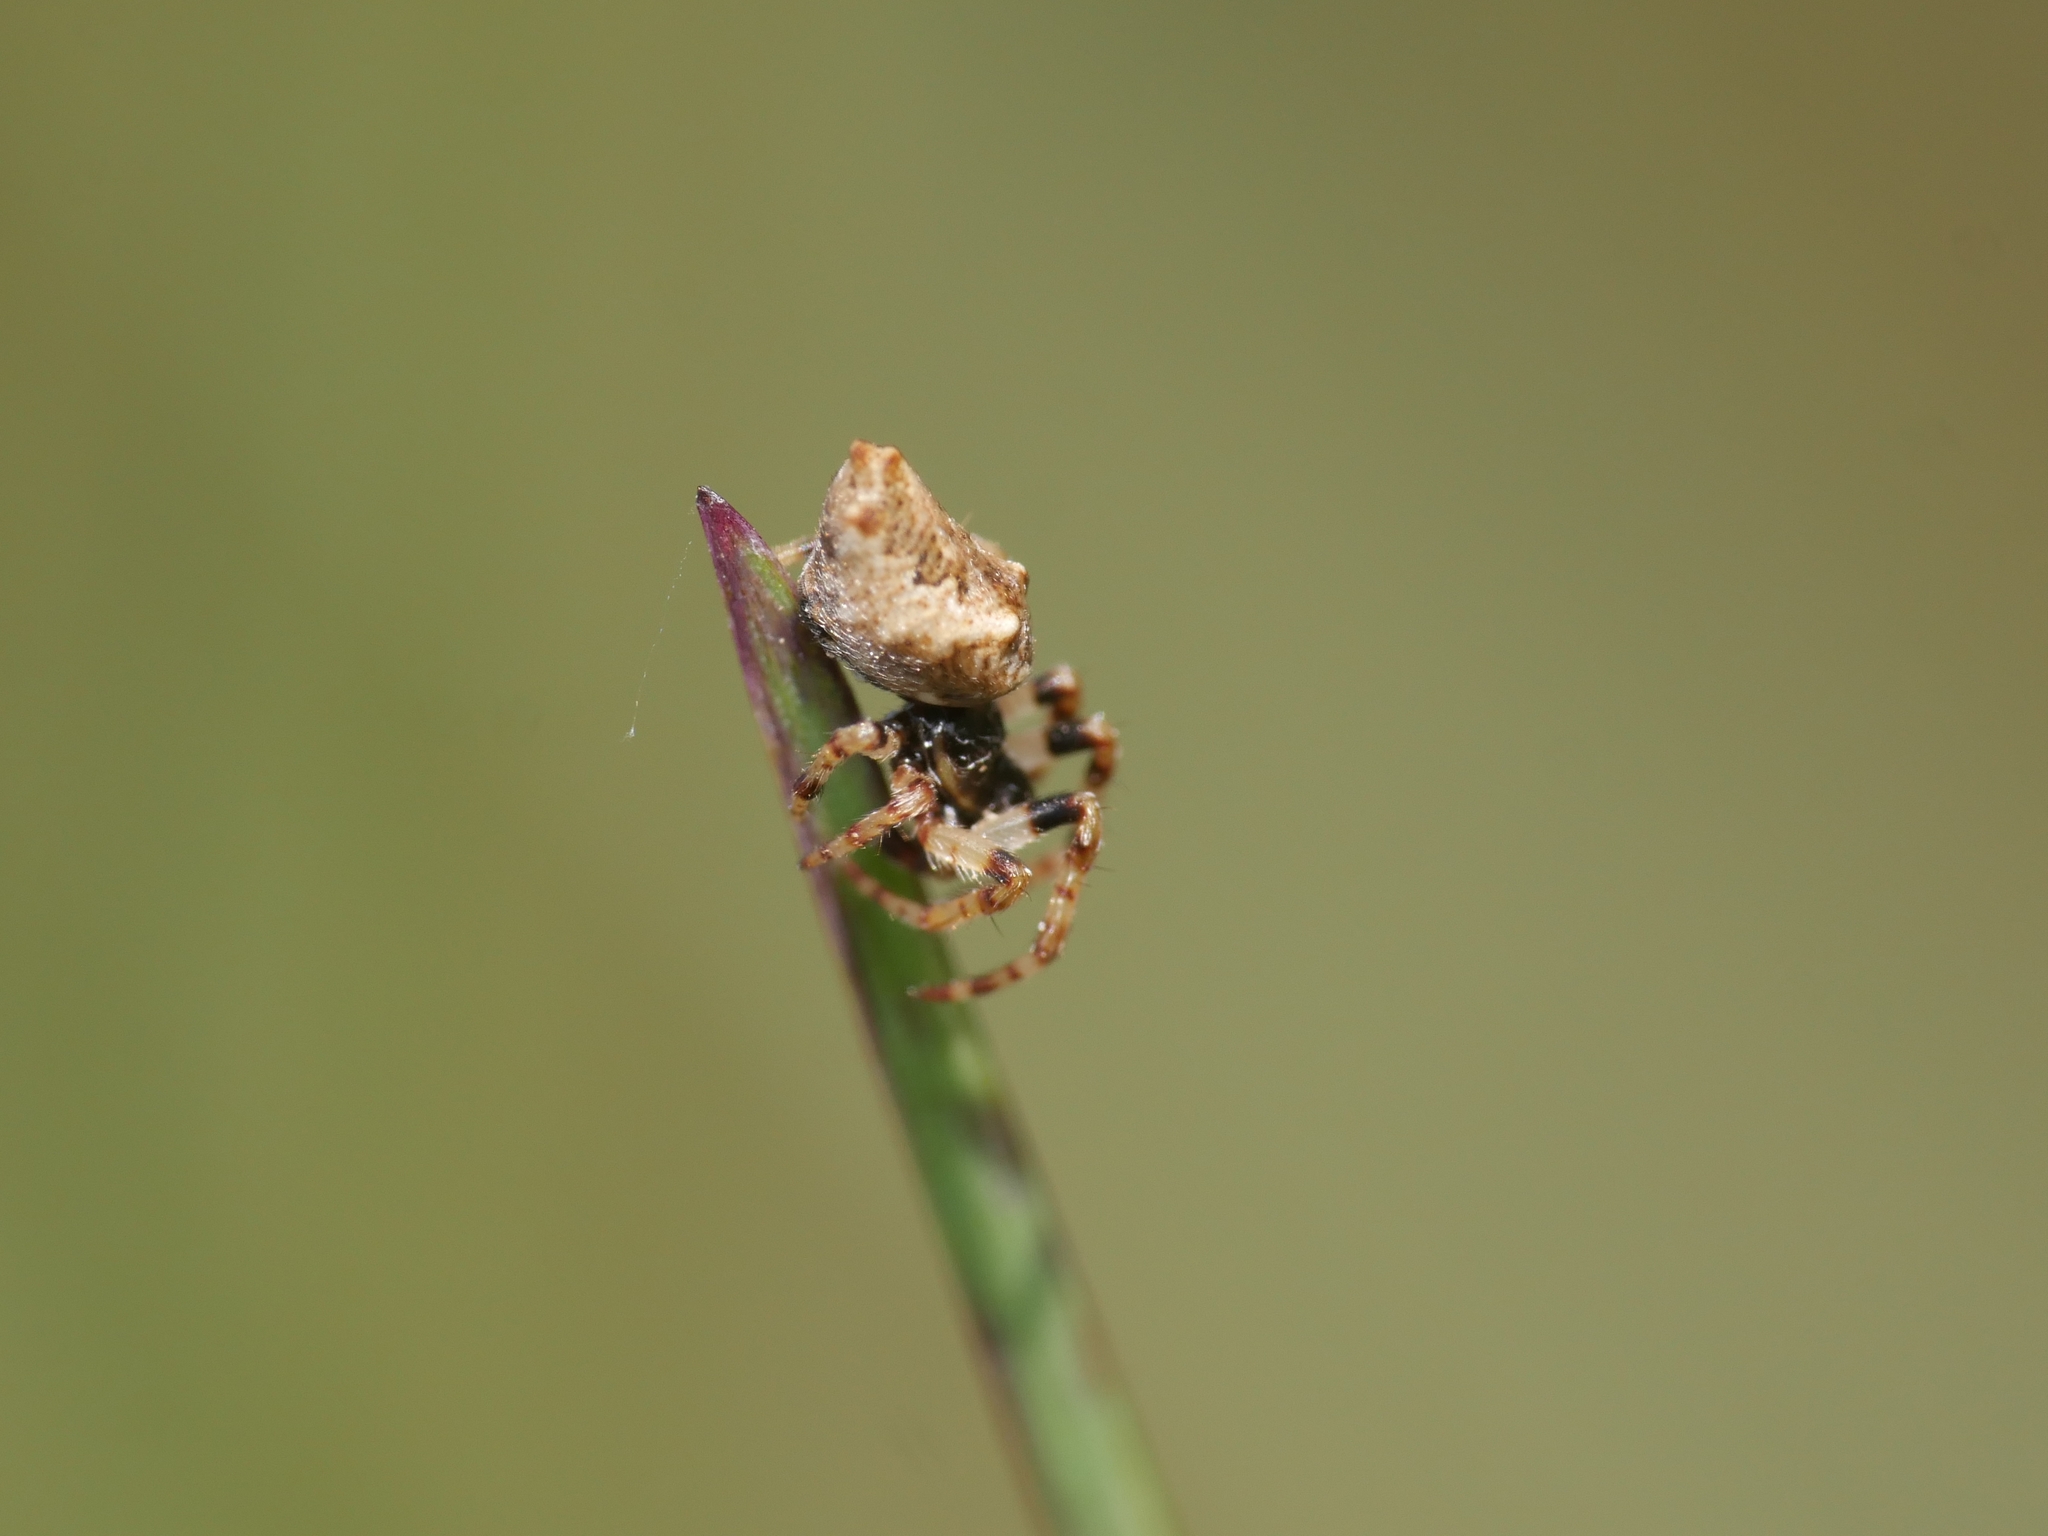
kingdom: Animalia
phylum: Arthropoda
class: Arachnida
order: Araneae
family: Araneidae
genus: Cyclosa
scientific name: Cyclosa oculata
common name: Trashline orbweaver
